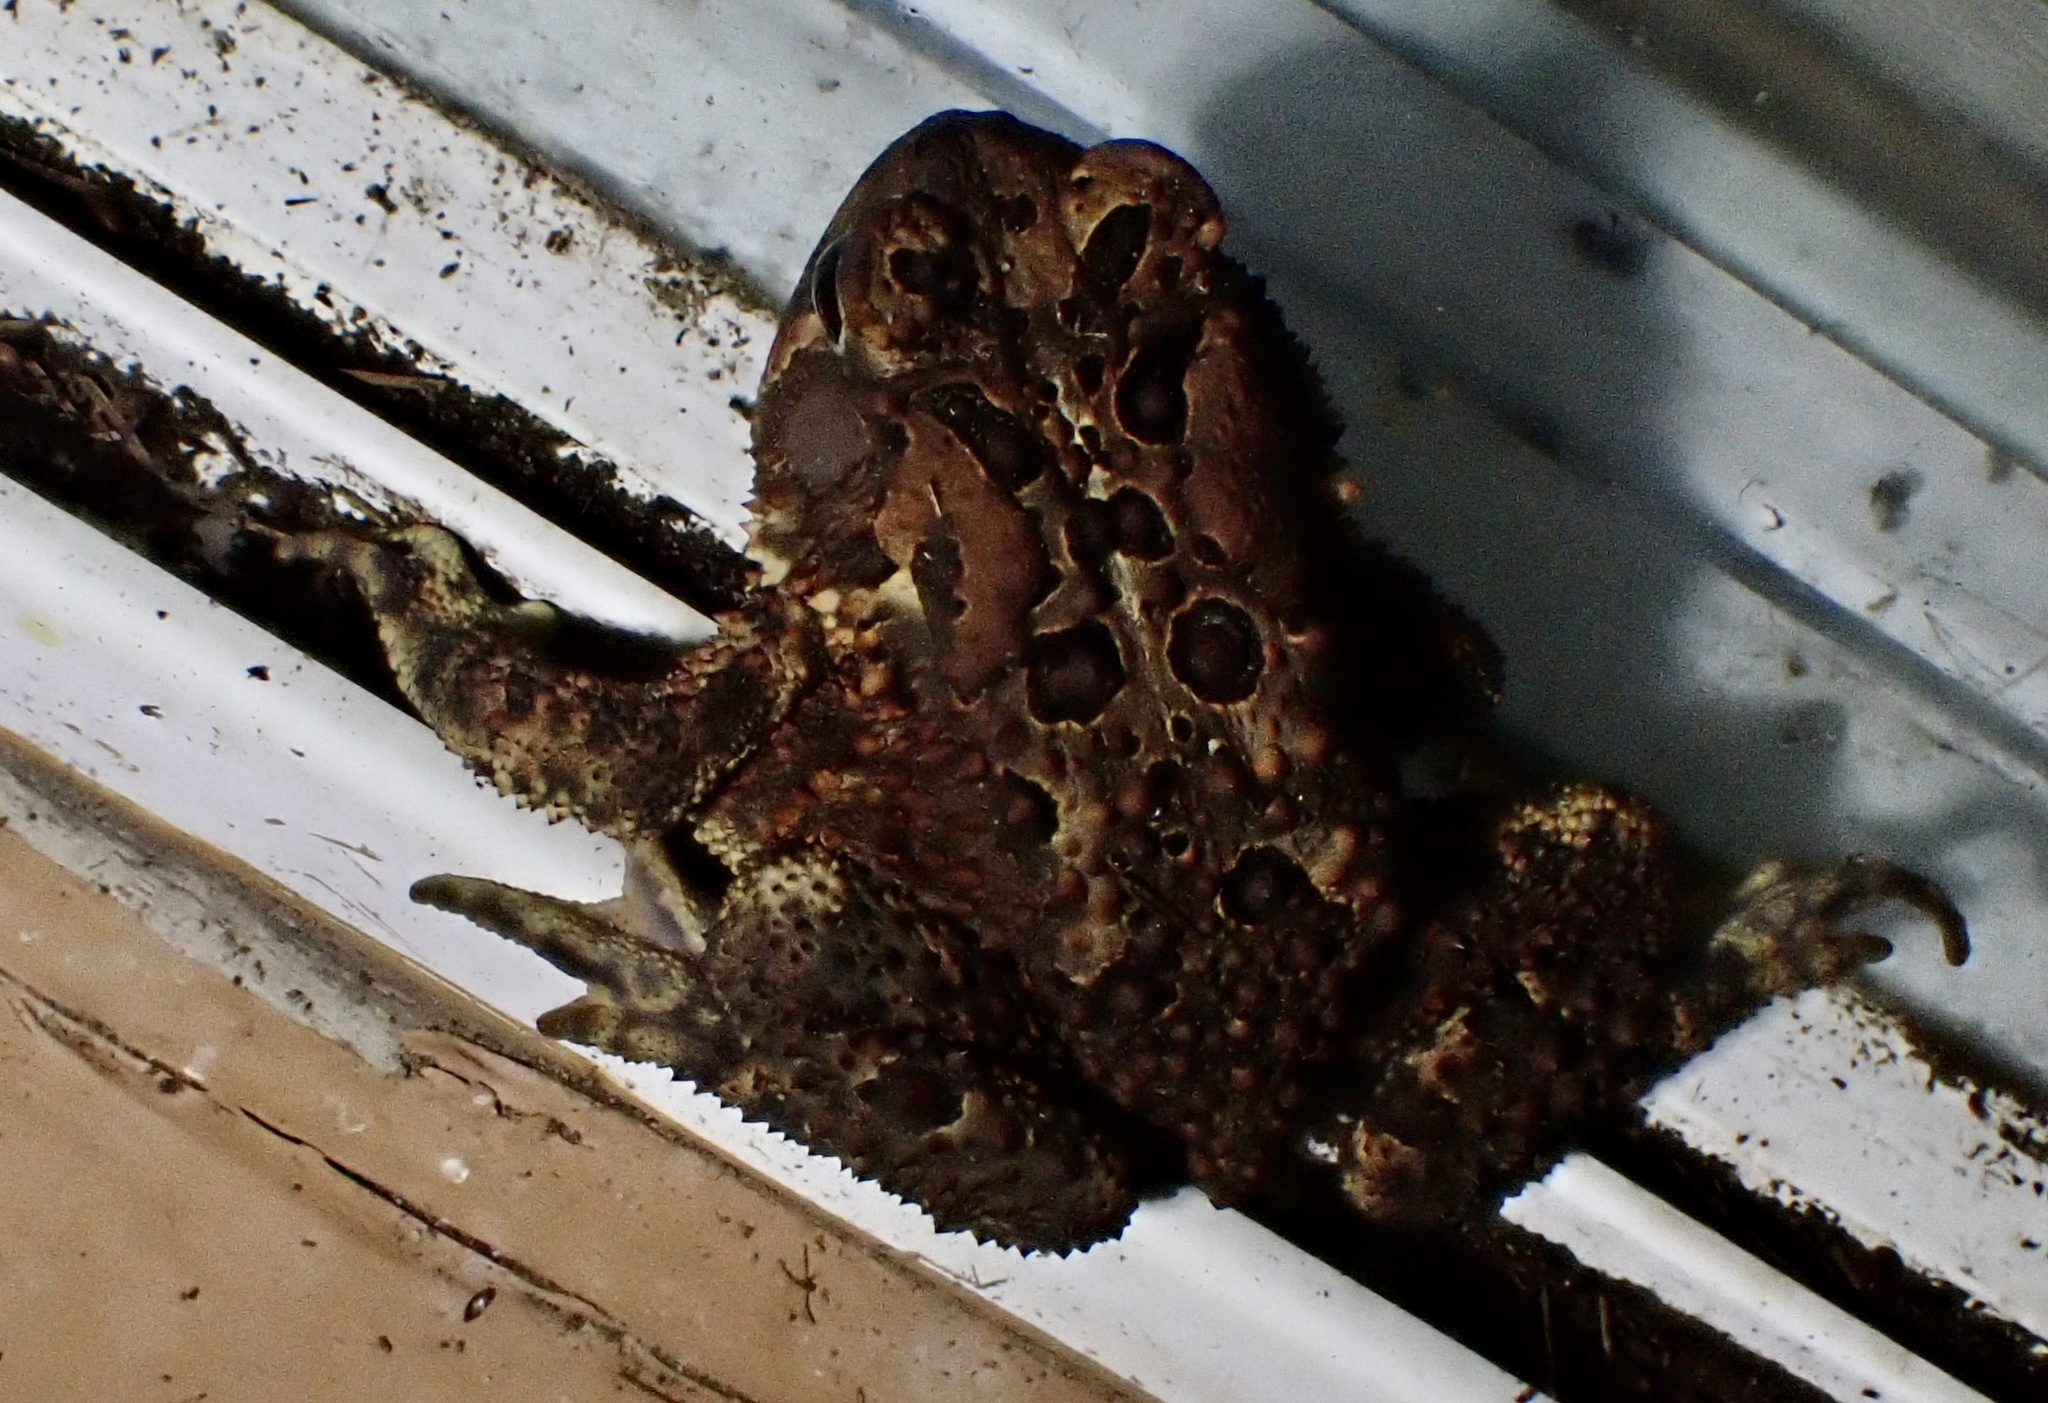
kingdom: Animalia
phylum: Chordata
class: Amphibia
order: Anura
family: Bufonidae
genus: Anaxyrus
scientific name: Anaxyrus americanus
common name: American toad
